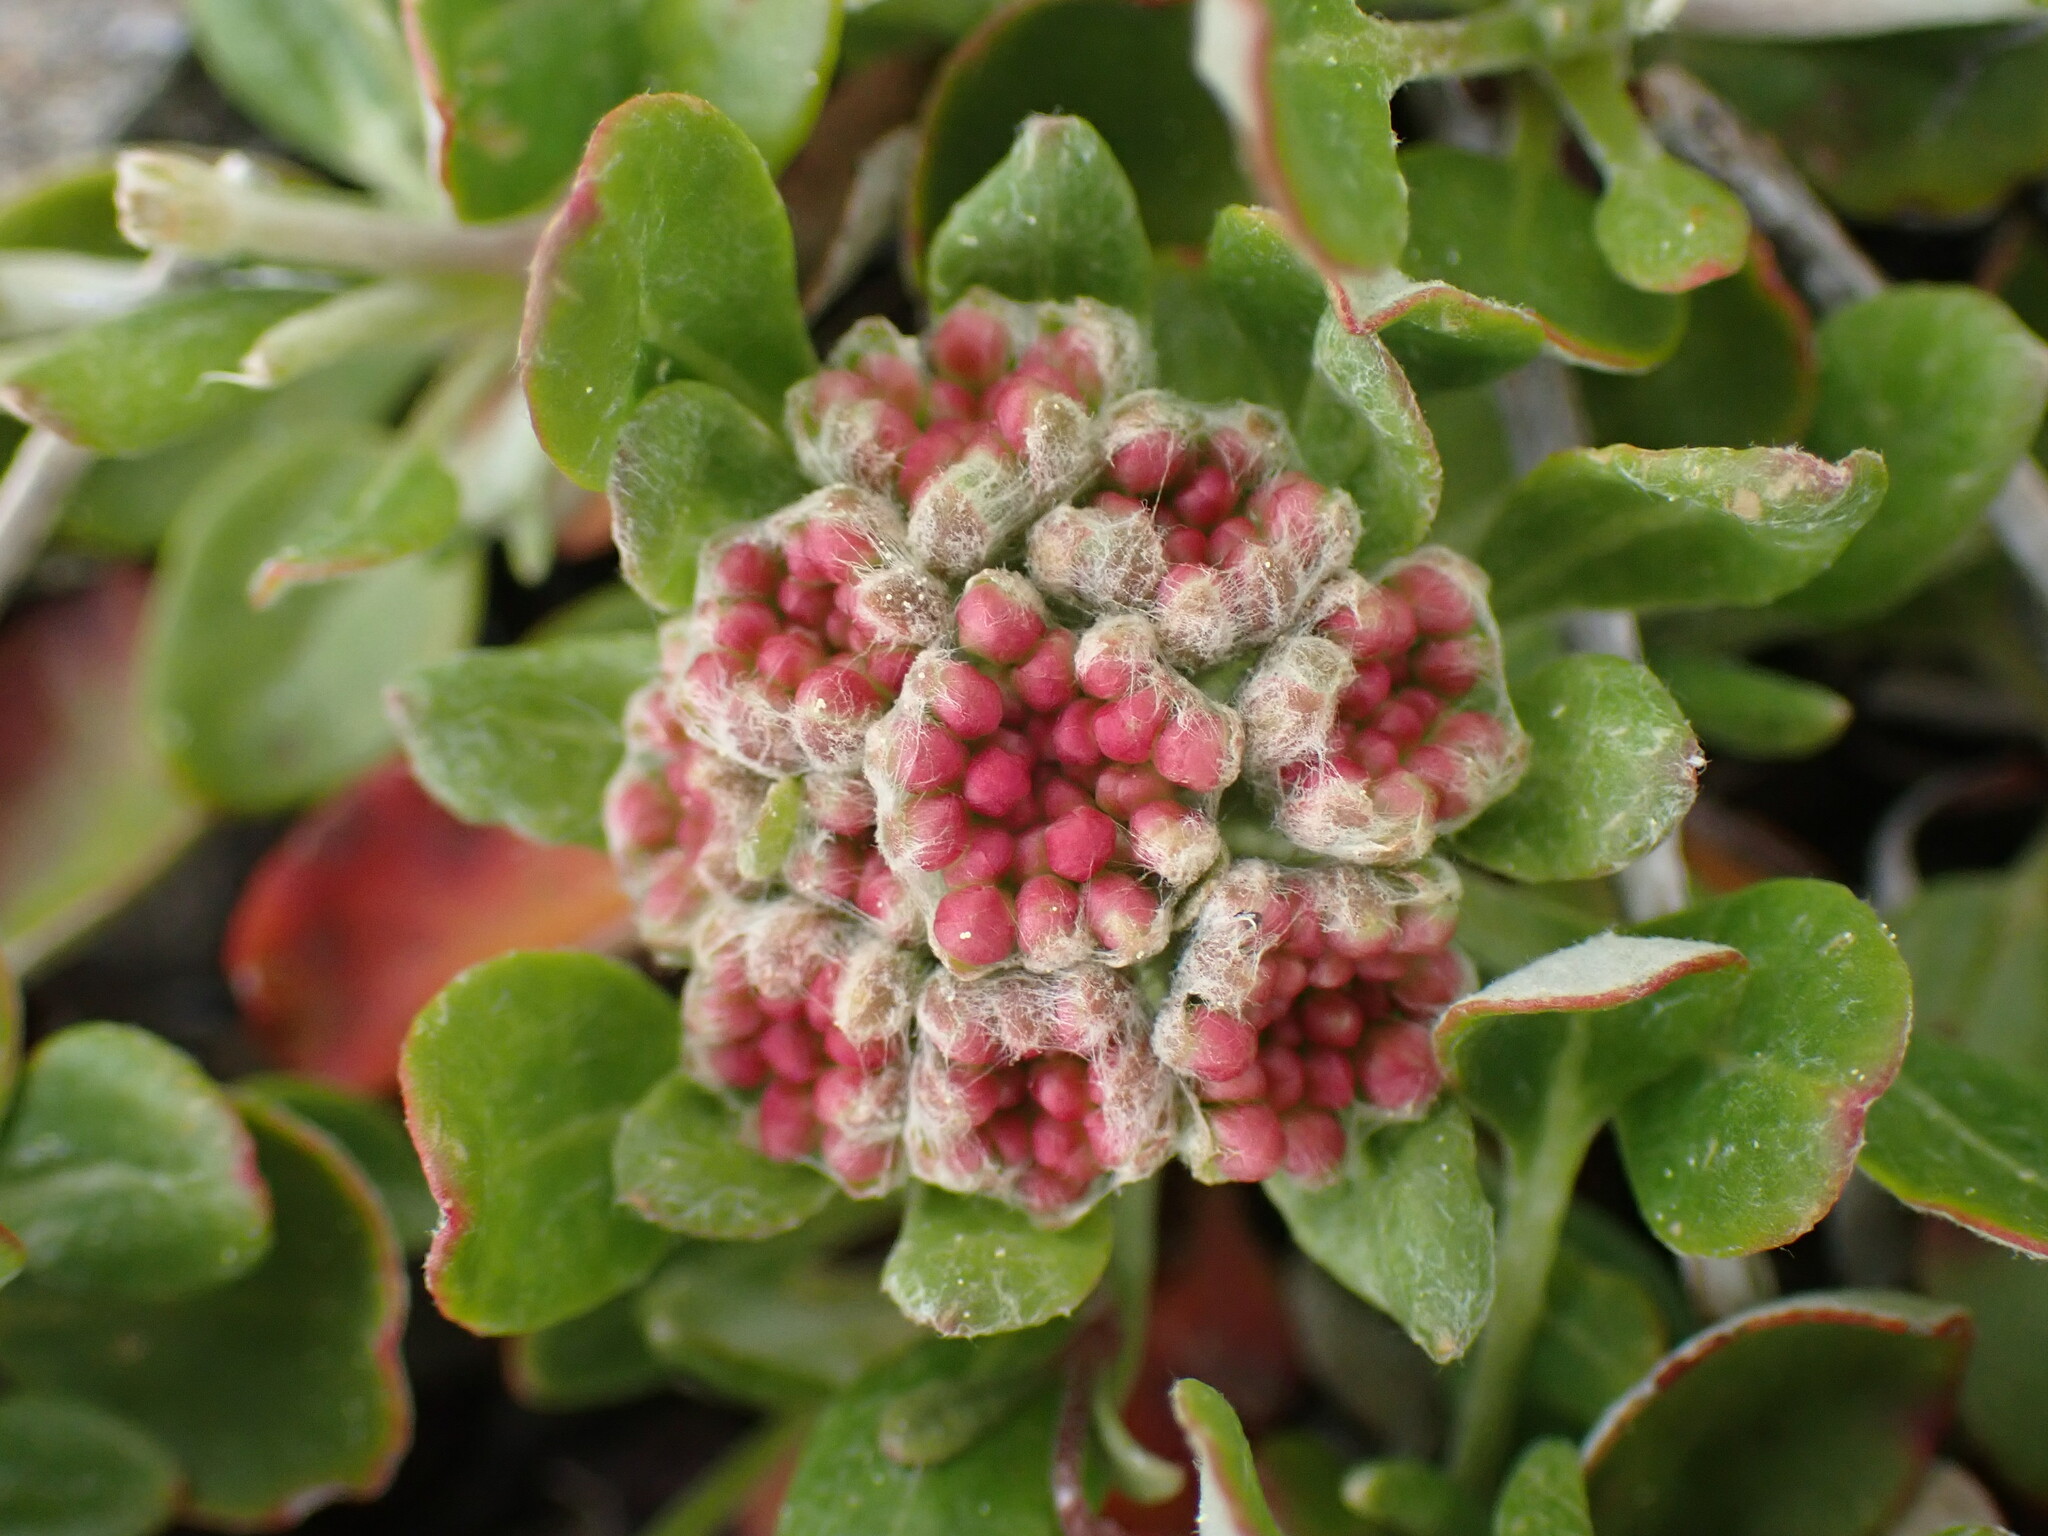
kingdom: Plantae
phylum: Tracheophyta
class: Magnoliopsida
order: Caryophyllales
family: Polygonaceae
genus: Eriogonum
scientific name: Eriogonum umbellatum
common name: Sulfur-buckwheat
